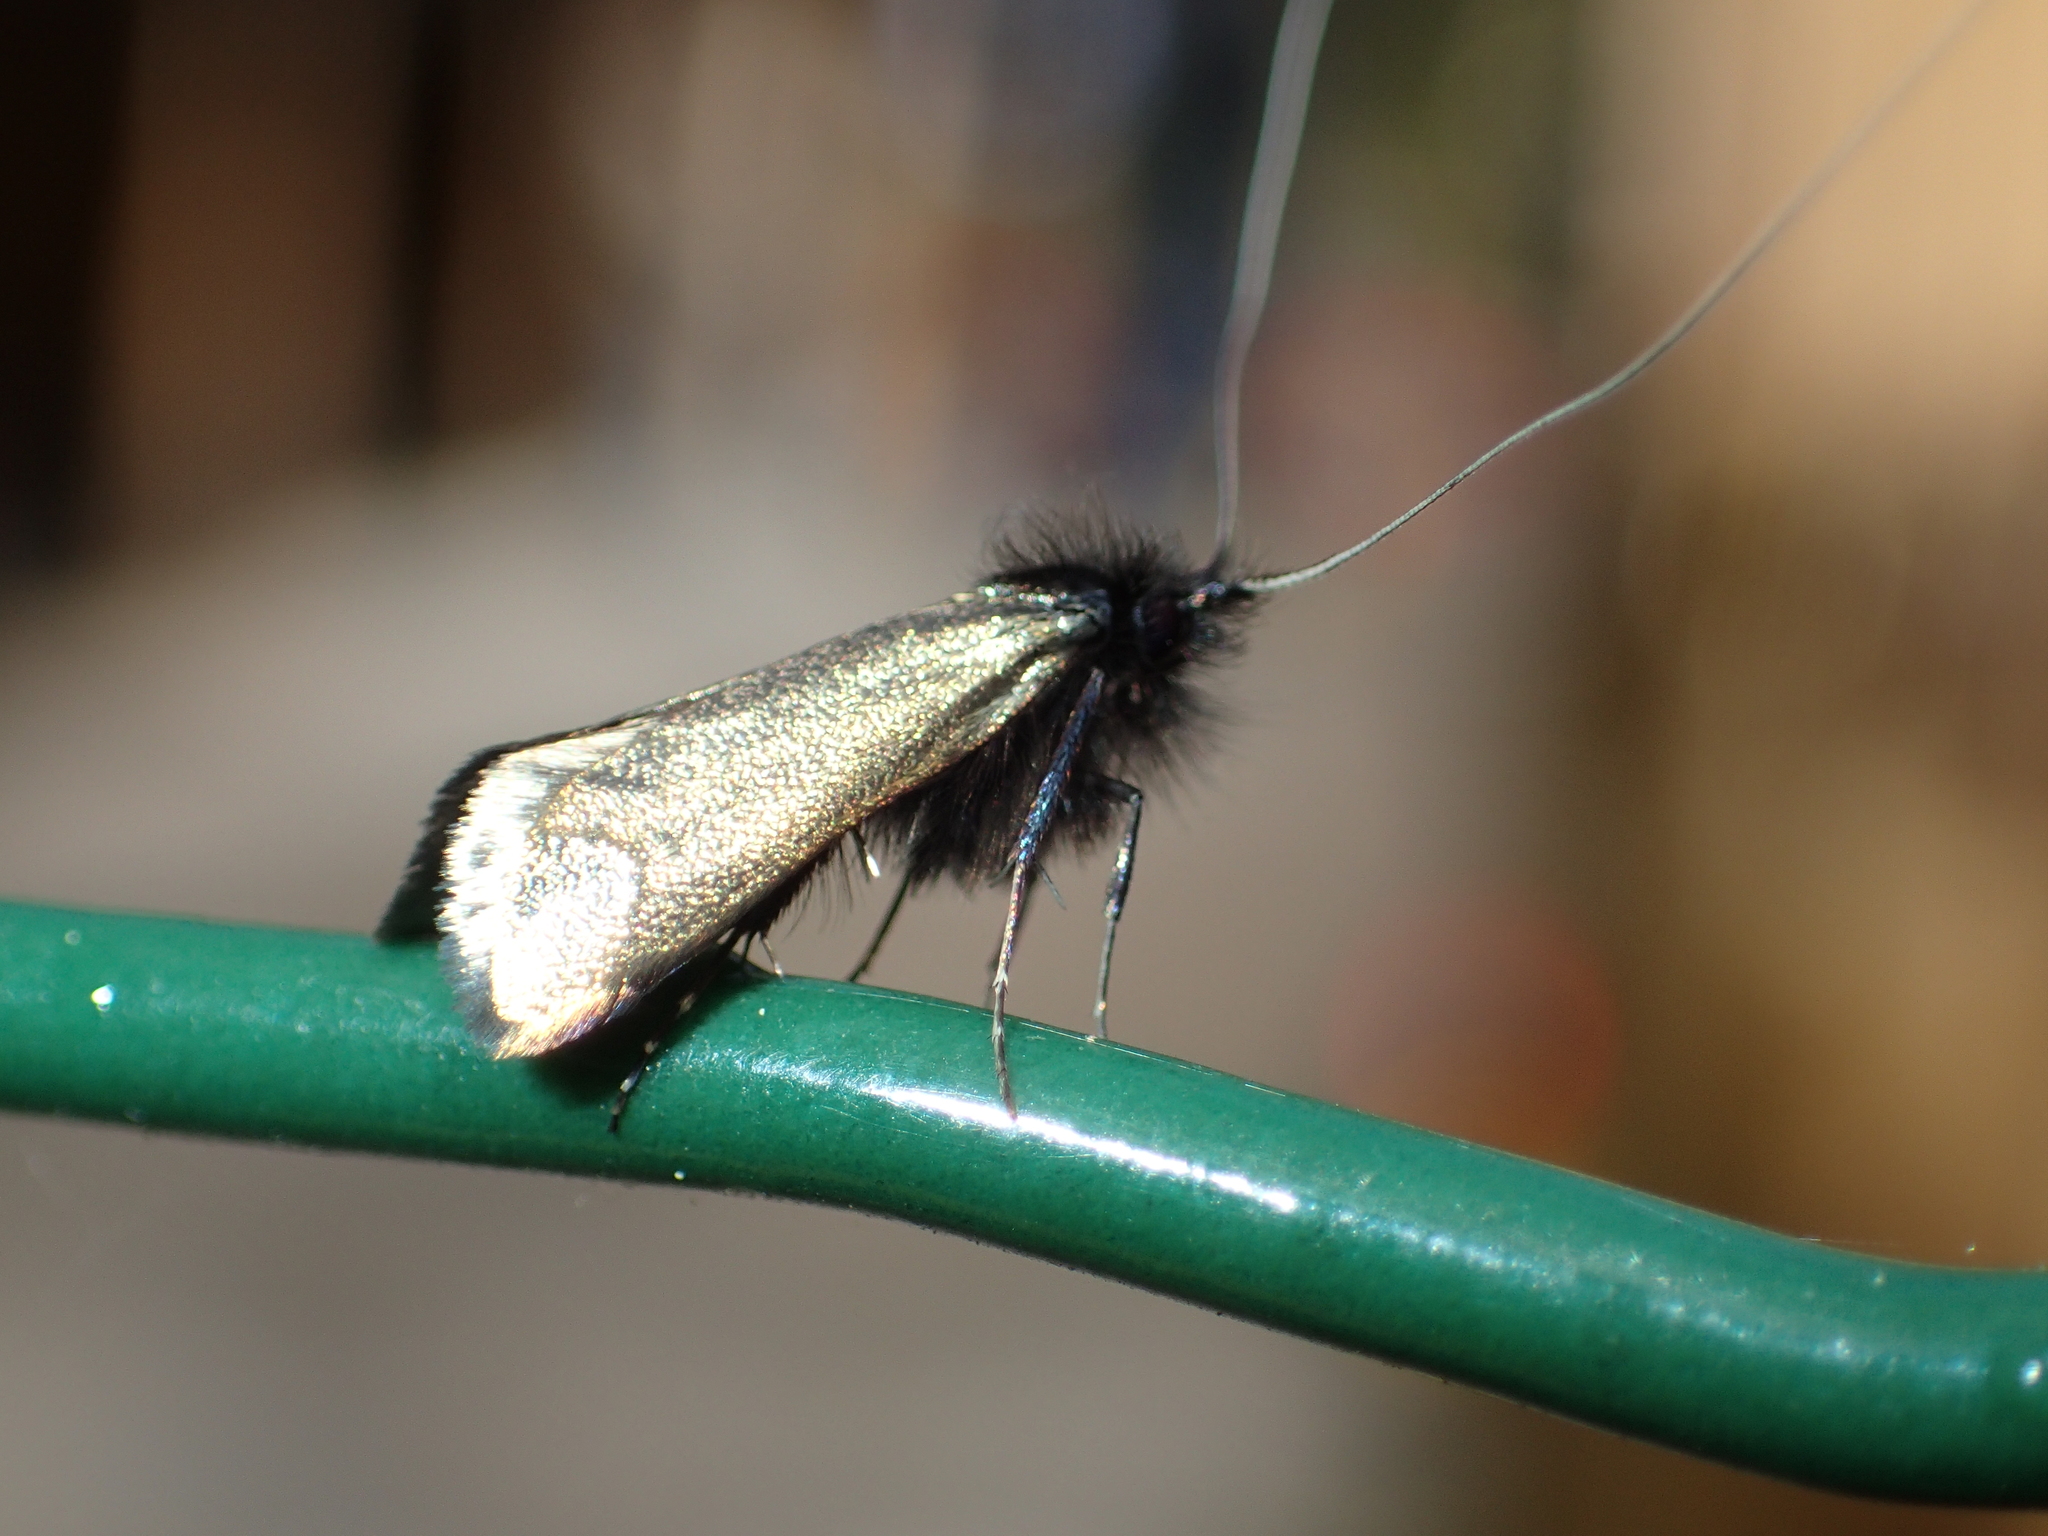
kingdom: Animalia
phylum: Arthropoda
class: Insecta
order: Lepidoptera
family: Adelidae
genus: Adela
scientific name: Adela viridella
